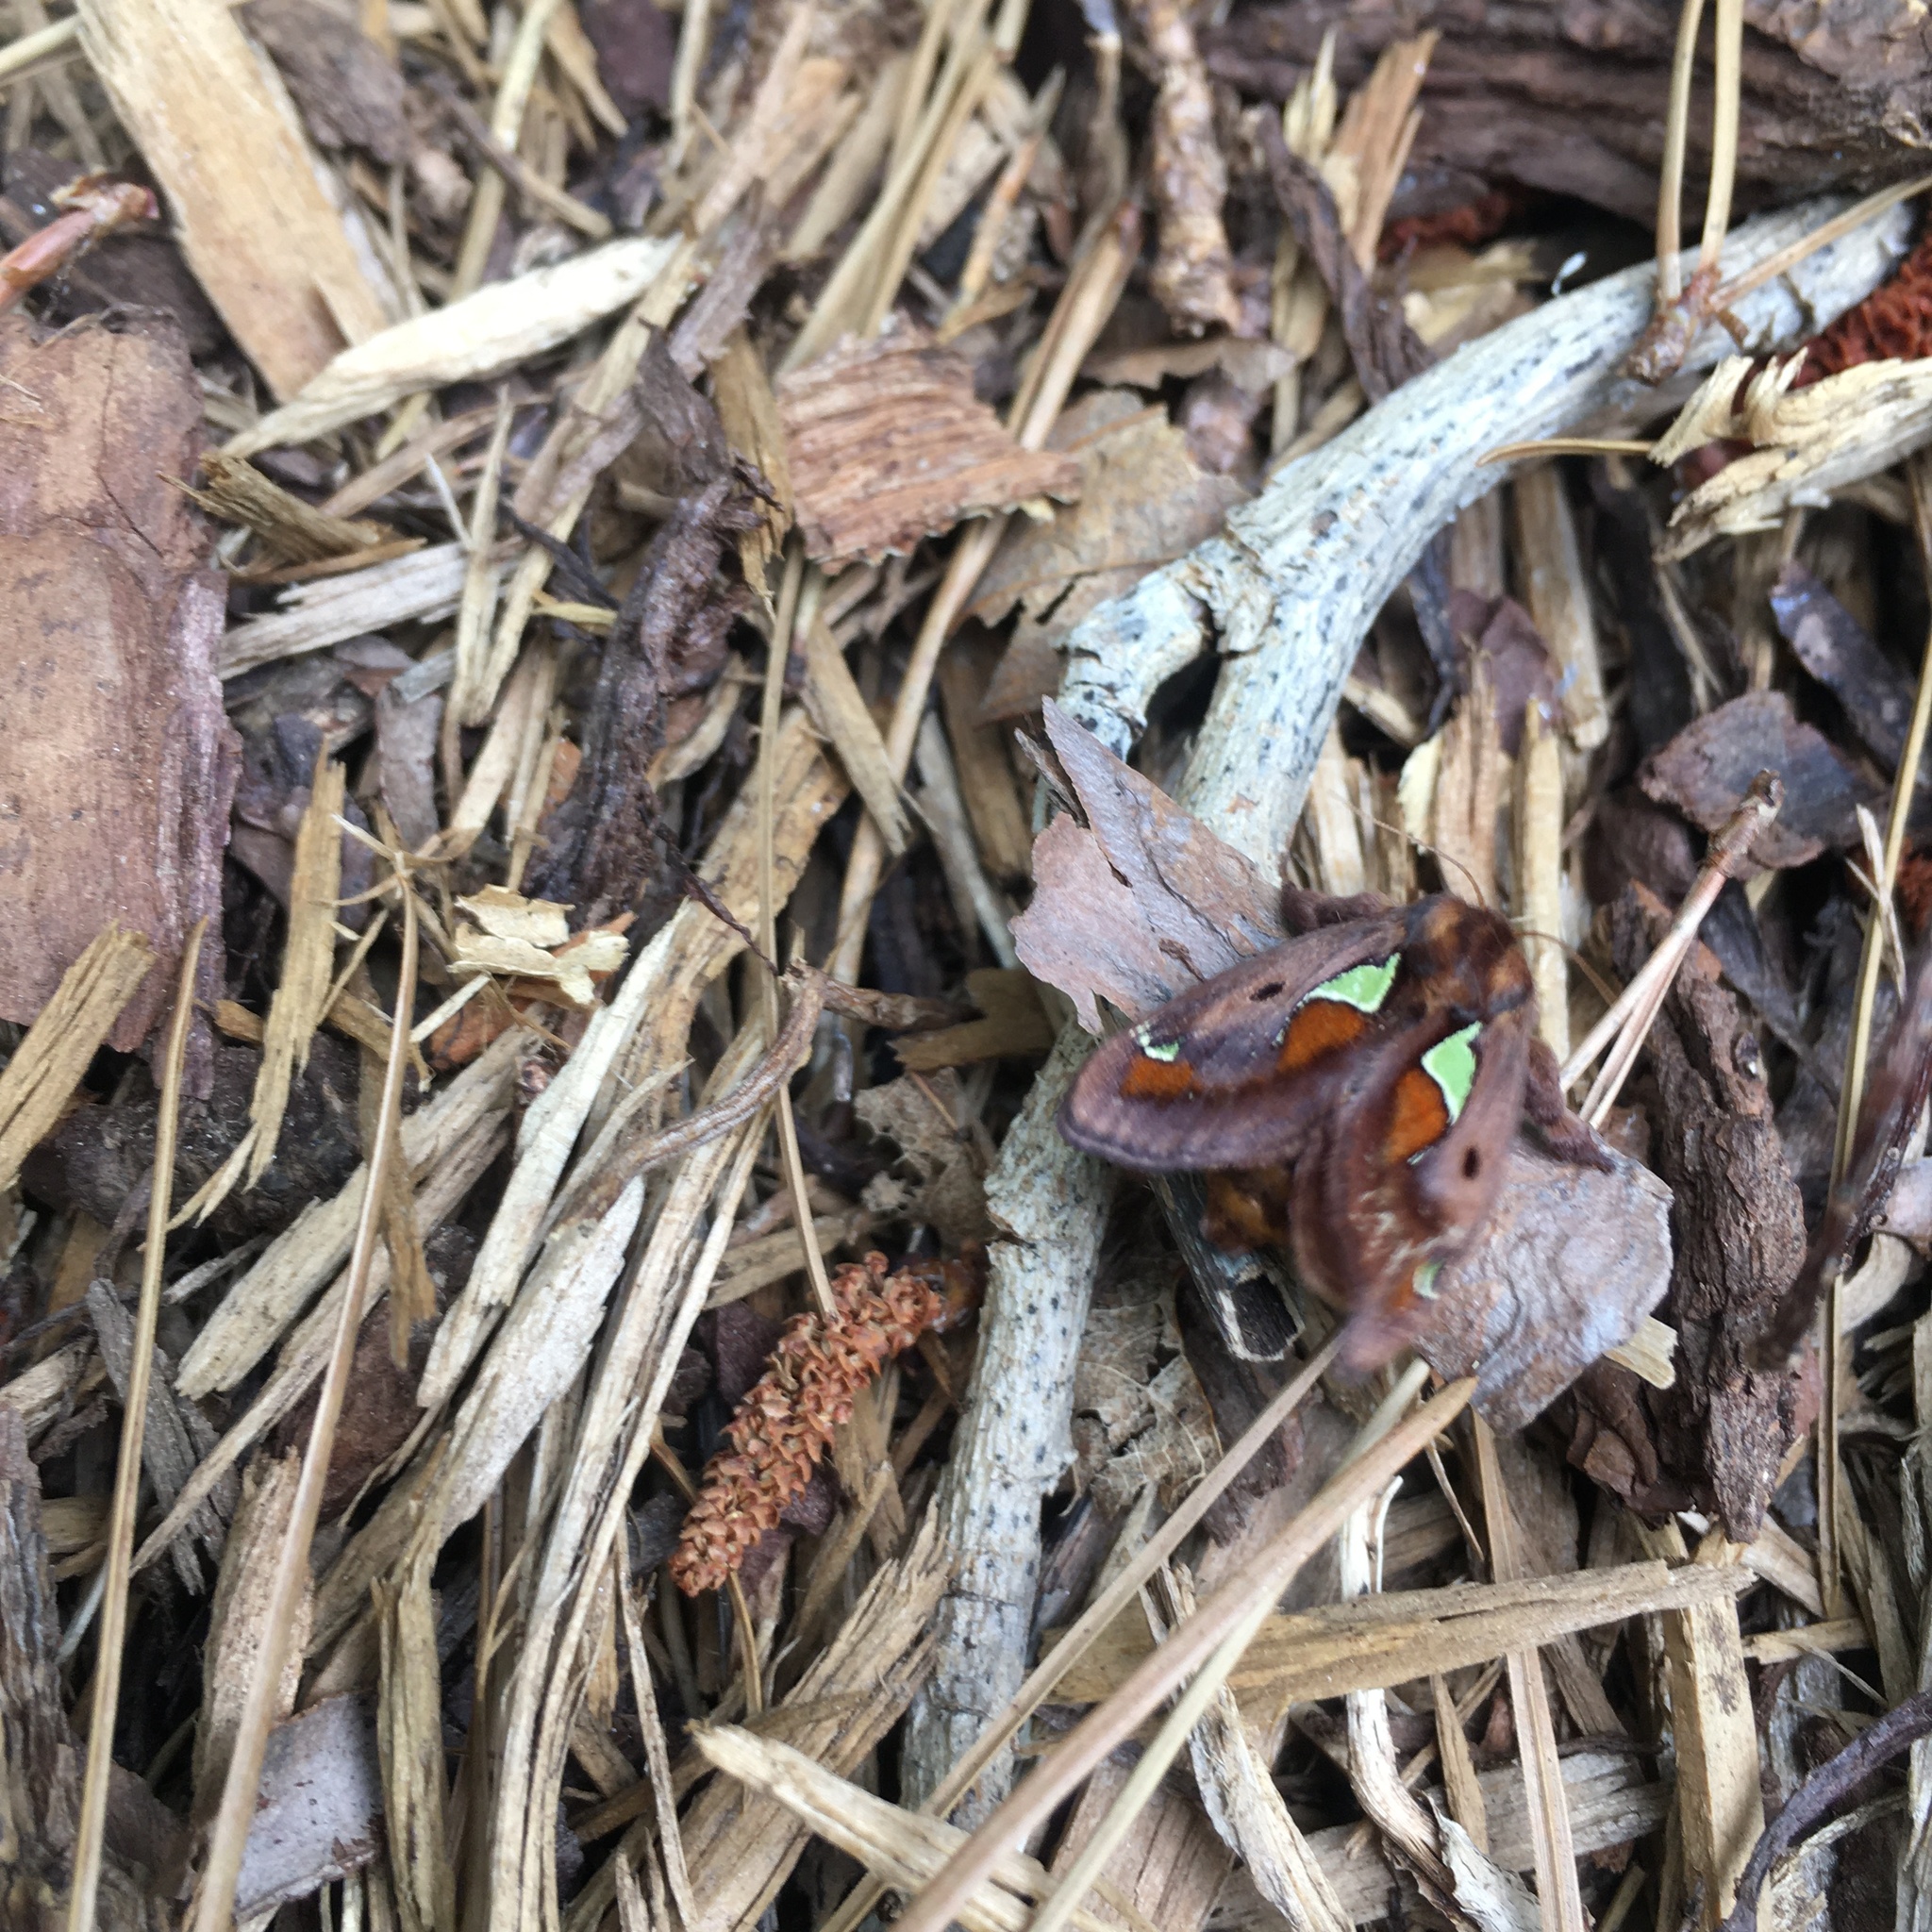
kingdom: Animalia
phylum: Arthropoda
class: Insecta
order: Lepidoptera
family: Limacodidae
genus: Euclea
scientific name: Euclea delphinii
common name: Spiny oak-slug moth
